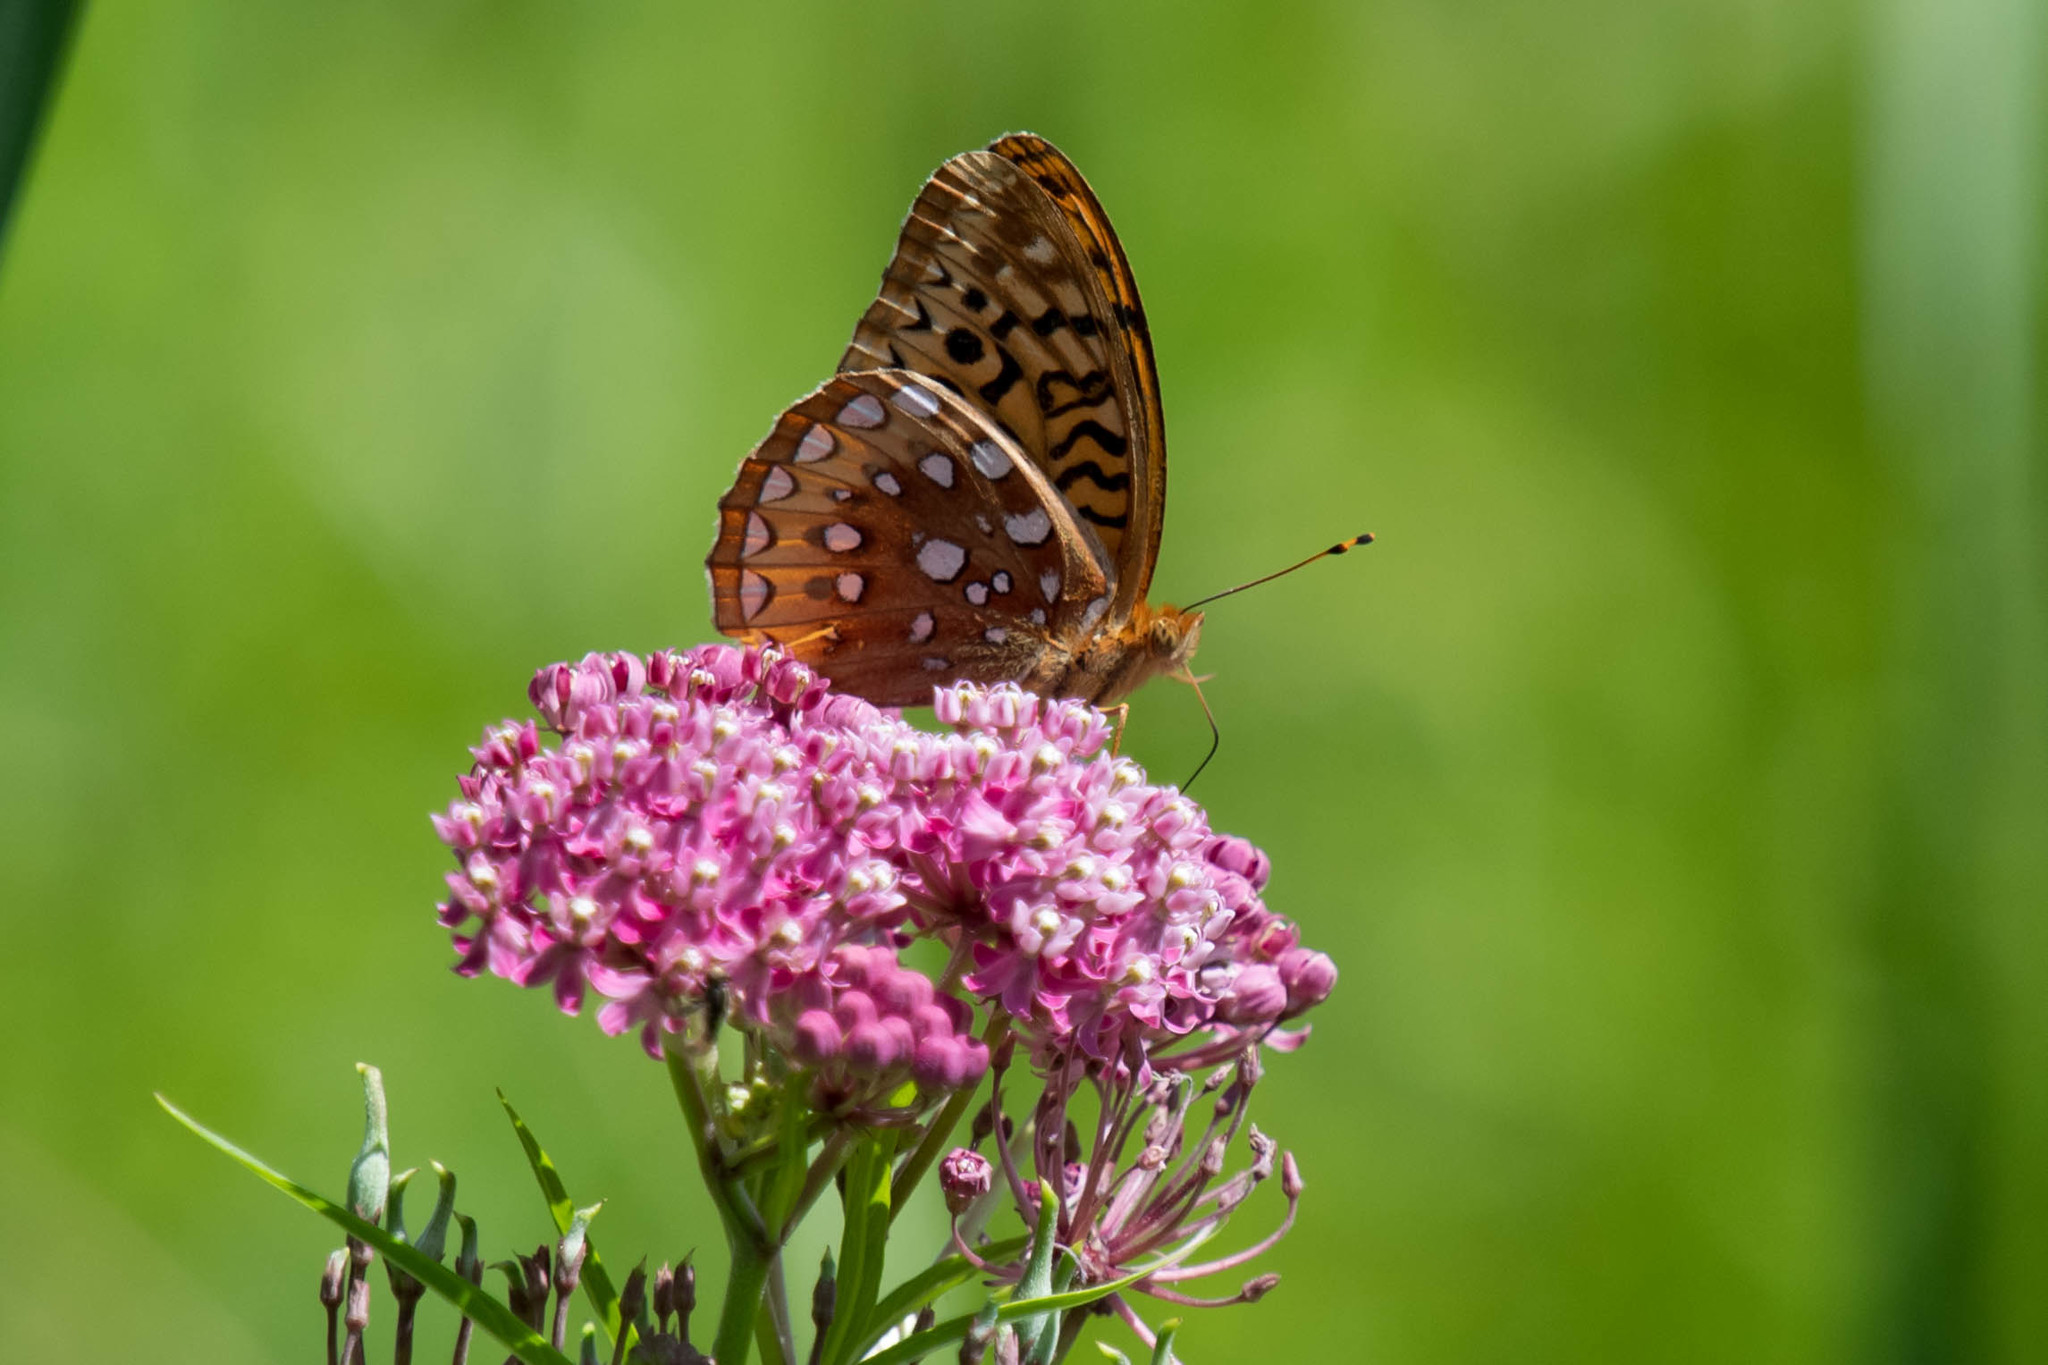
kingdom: Animalia
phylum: Arthropoda
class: Insecta
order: Lepidoptera
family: Nymphalidae
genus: Speyeria
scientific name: Speyeria cybele
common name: Great spangled fritillary
